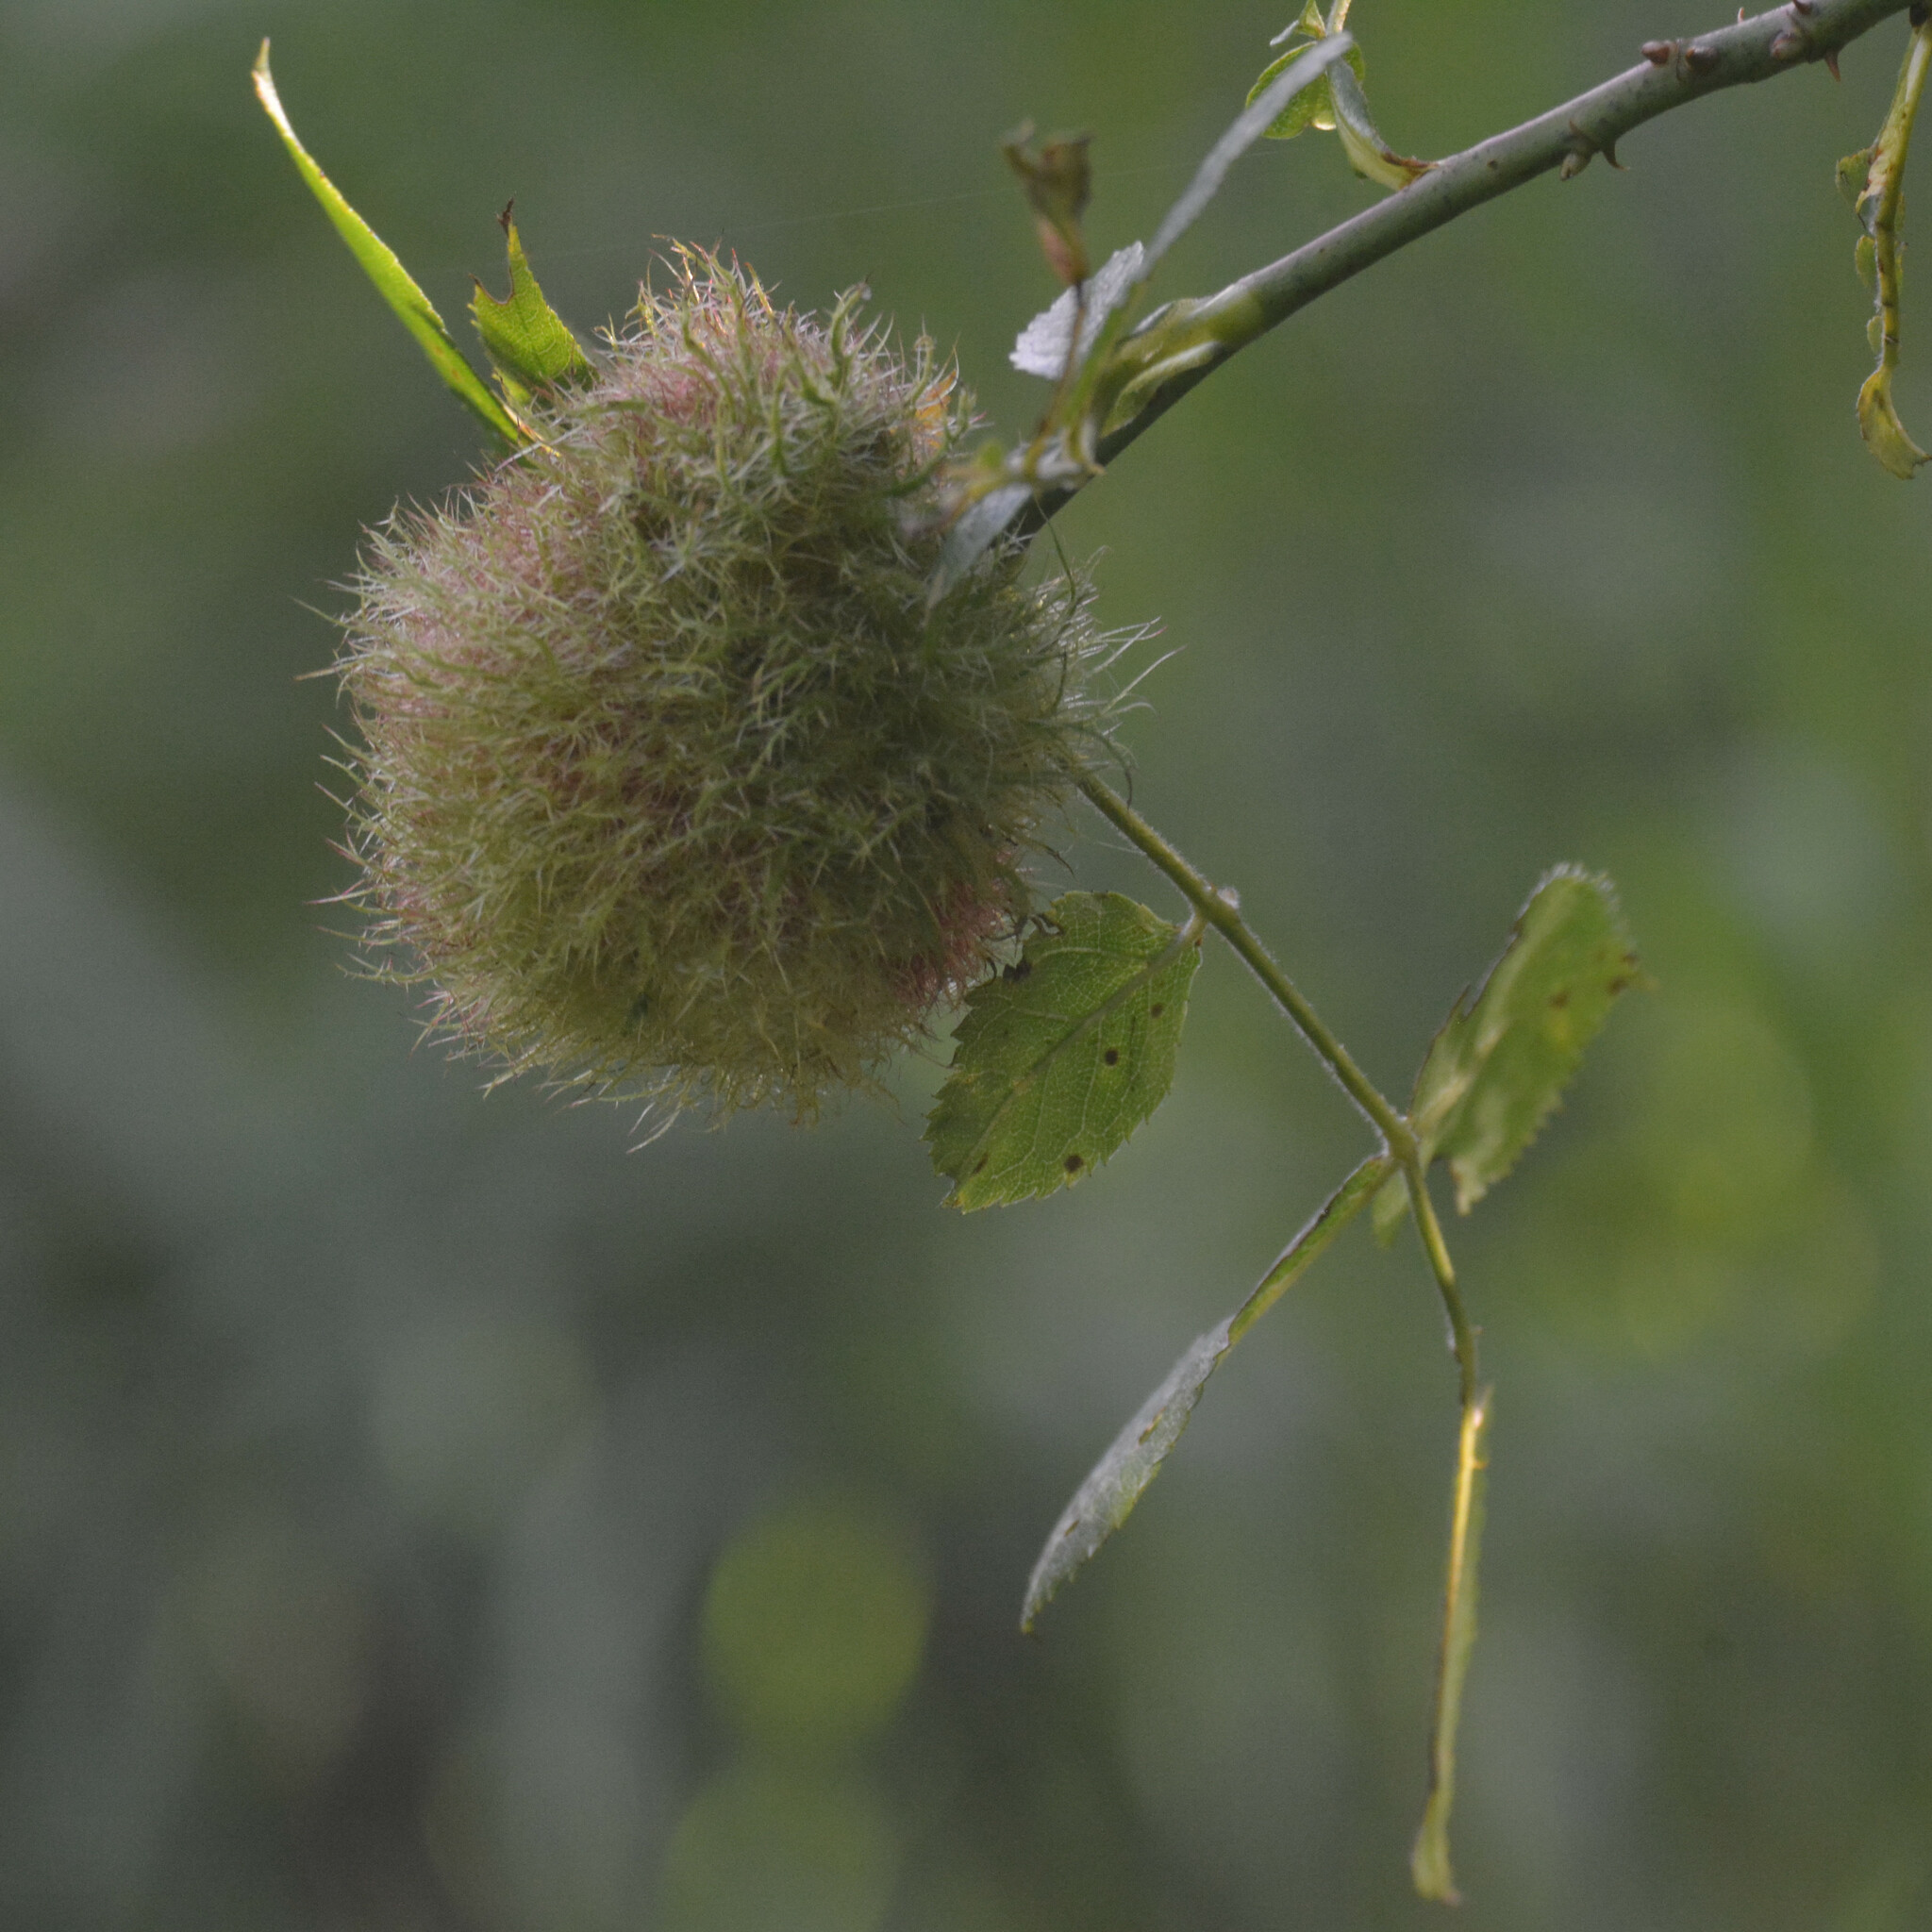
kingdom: Animalia
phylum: Arthropoda
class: Insecta
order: Hymenoptera
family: Cynipidae
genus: Diplolepis
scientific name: Diplolepis rosae
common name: Bedeguar gall
